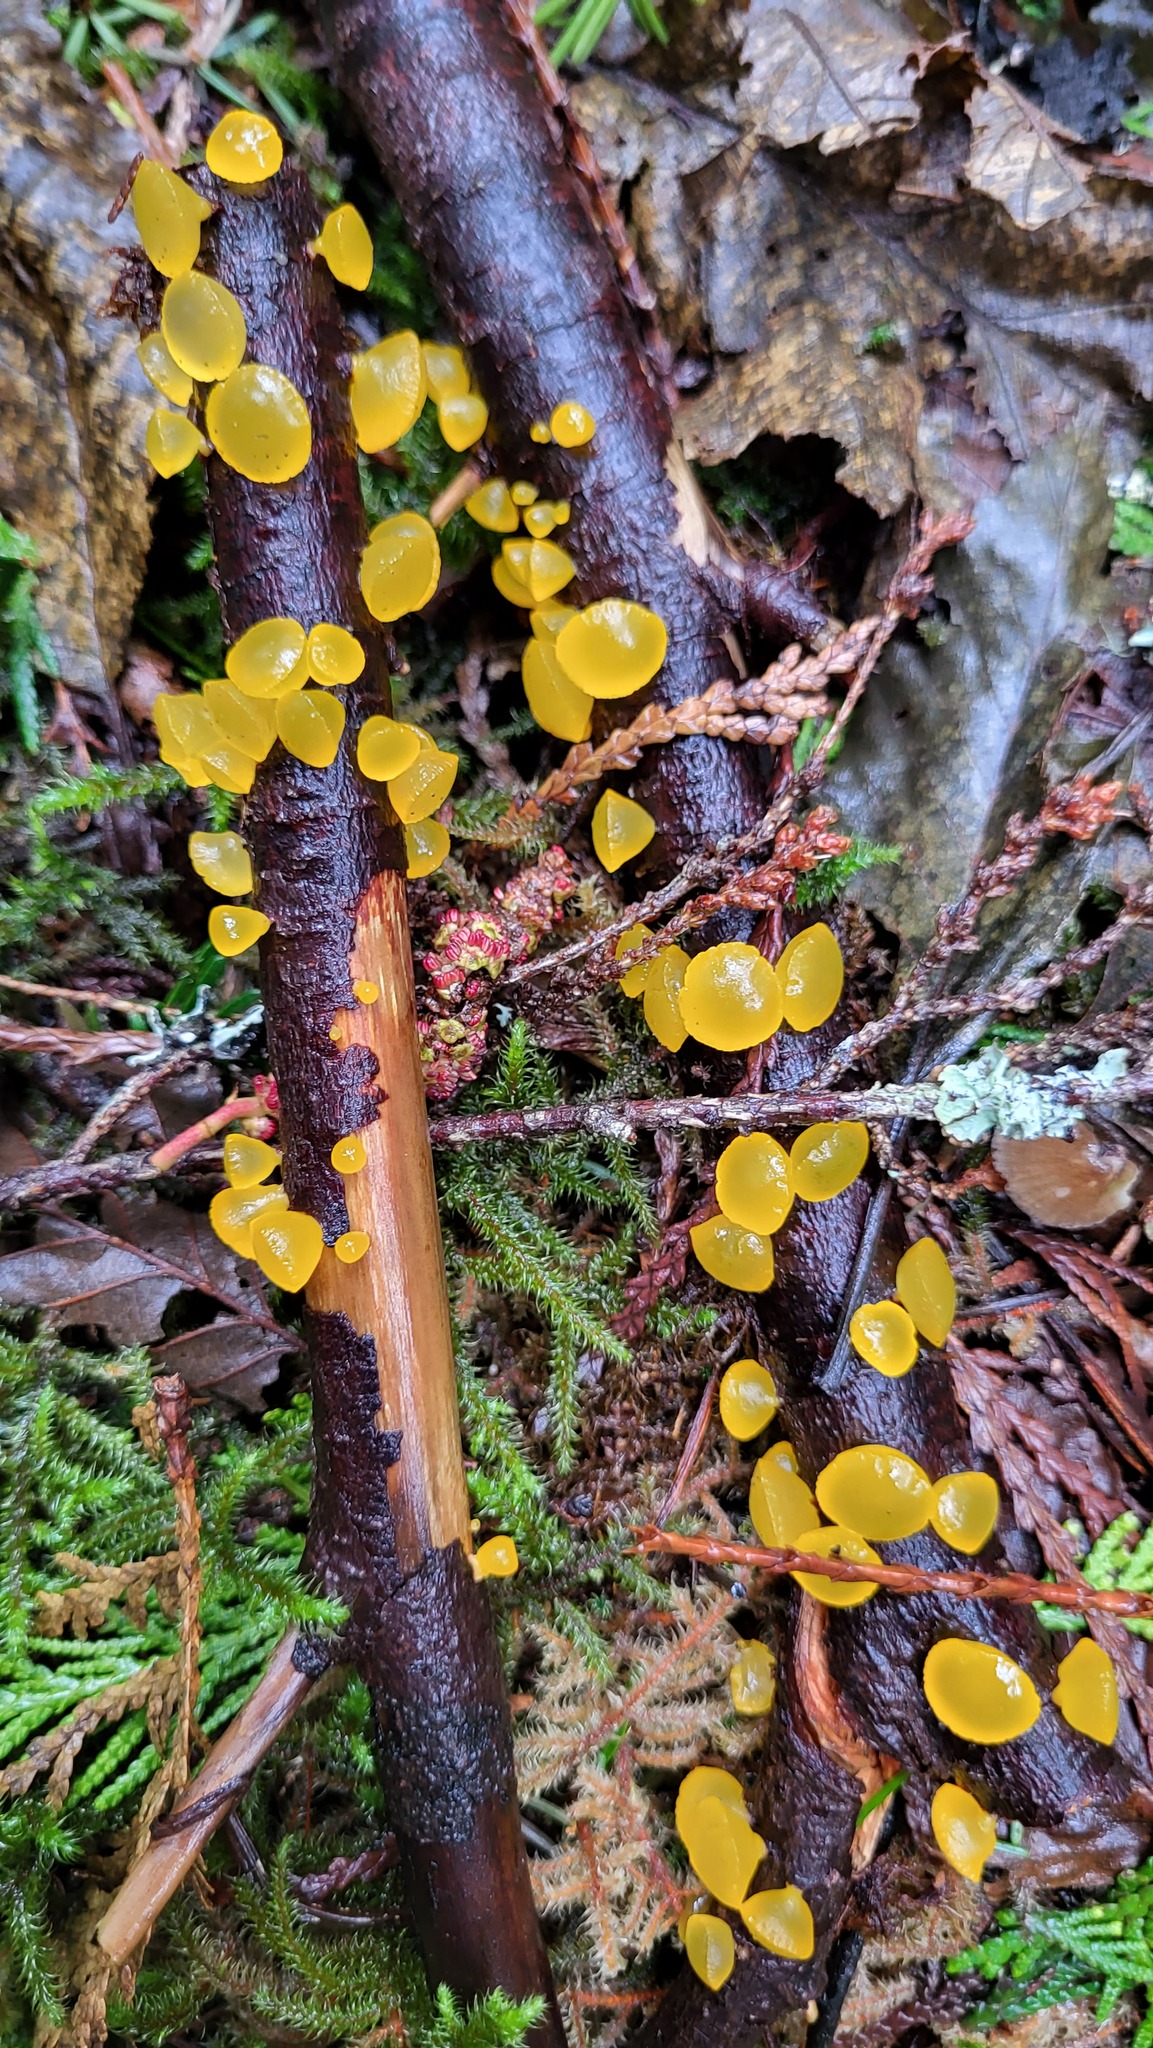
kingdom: Fungi
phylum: Basidiomycota
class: Dacrymycetes
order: Dacrymycetales
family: Dacrymycetaceae
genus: Guepiniopsis
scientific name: Guepiniopsis alpina
